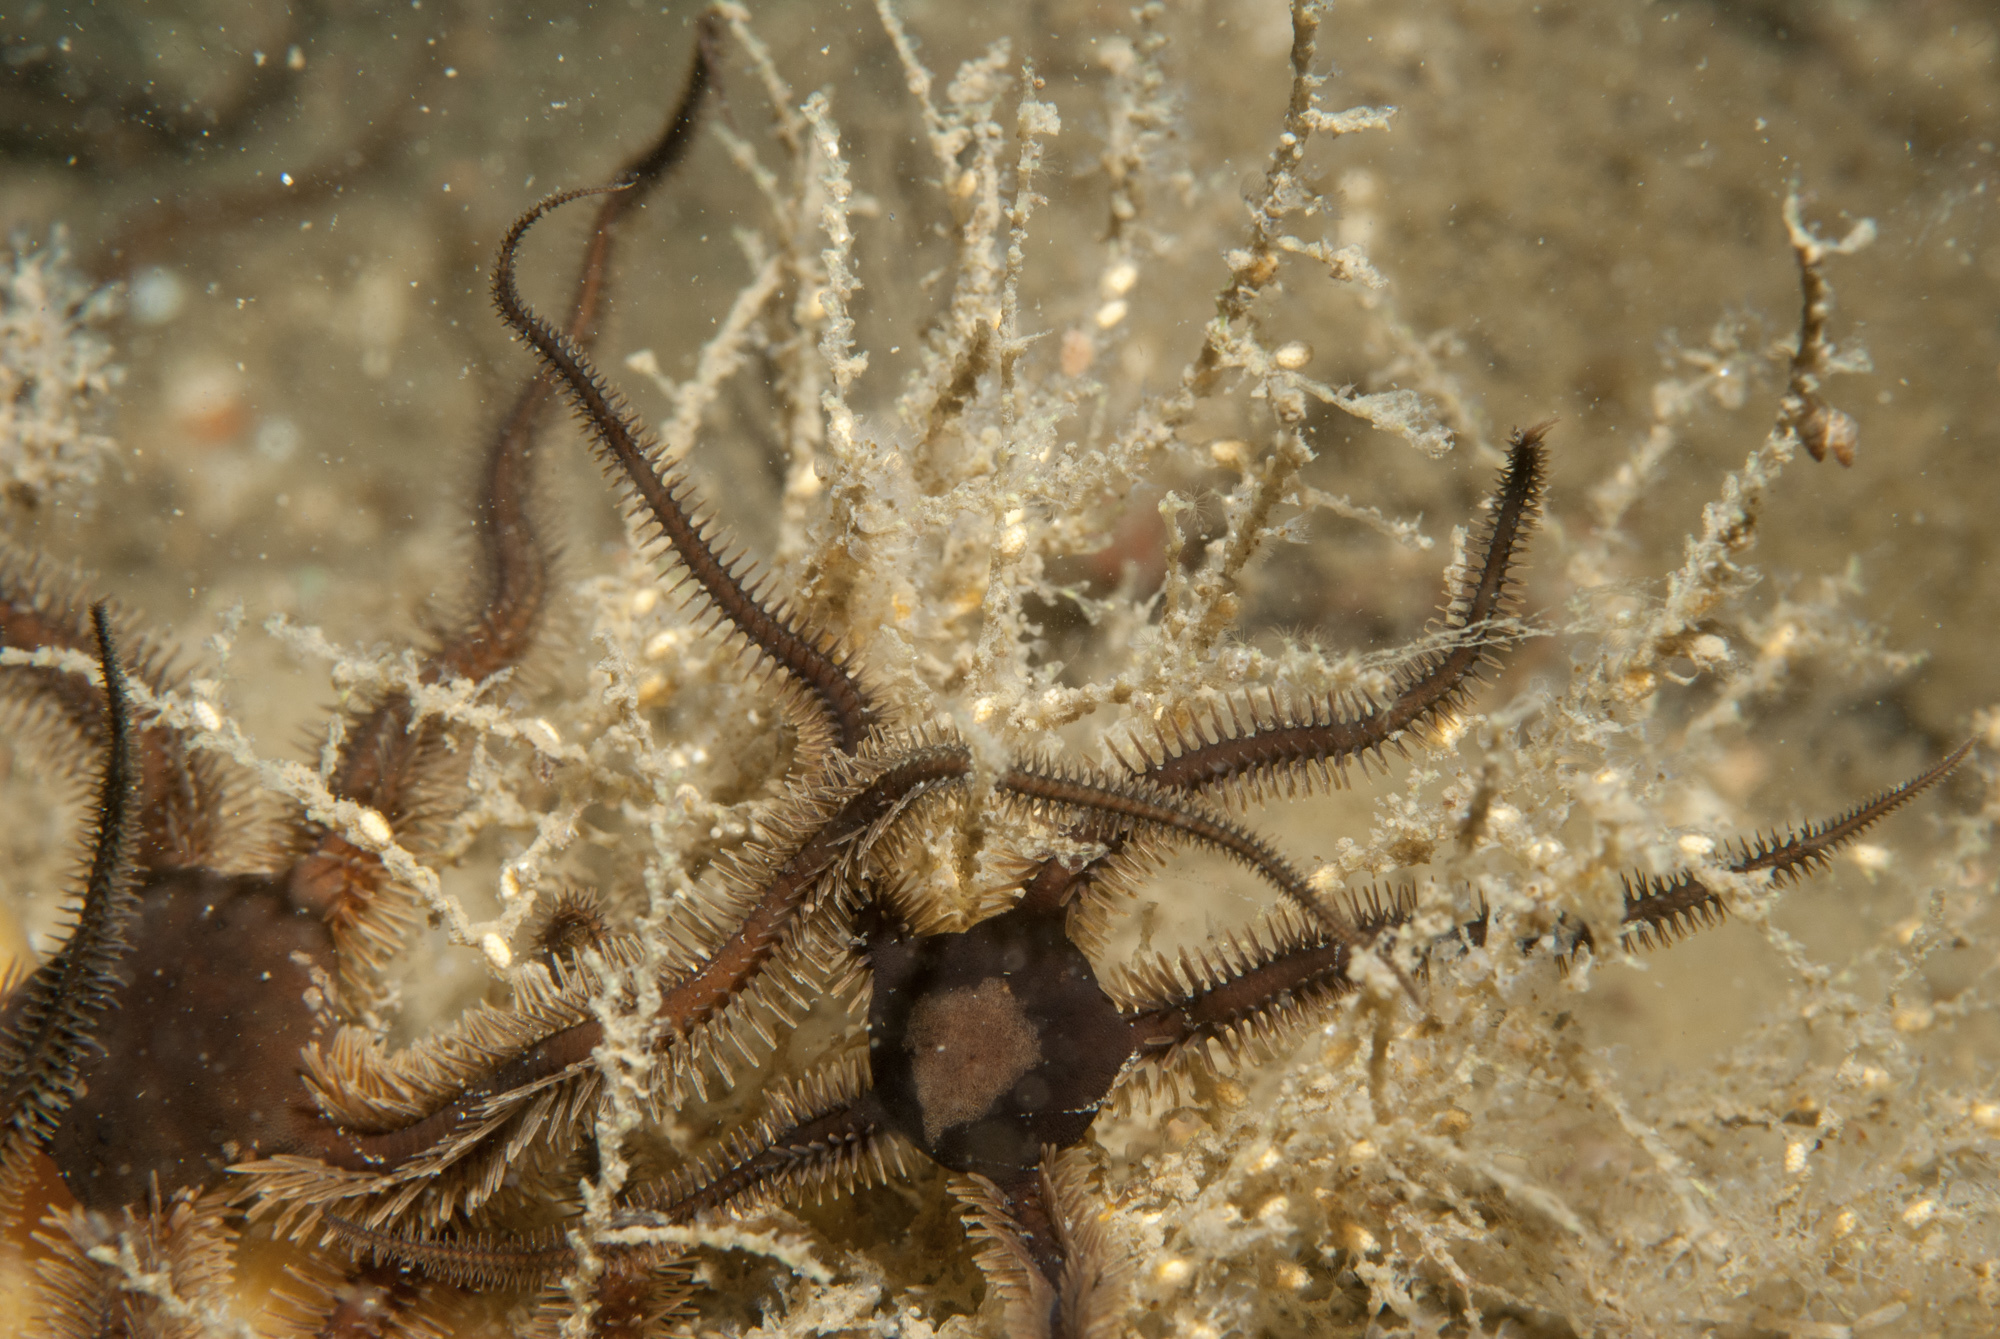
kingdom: Animalia
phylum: Cnidaria
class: Hydrozoa
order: Leptothecata
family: Sertularellidae
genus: Sertularella
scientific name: Sertularella polyzonias
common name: Great tooth hydroid
